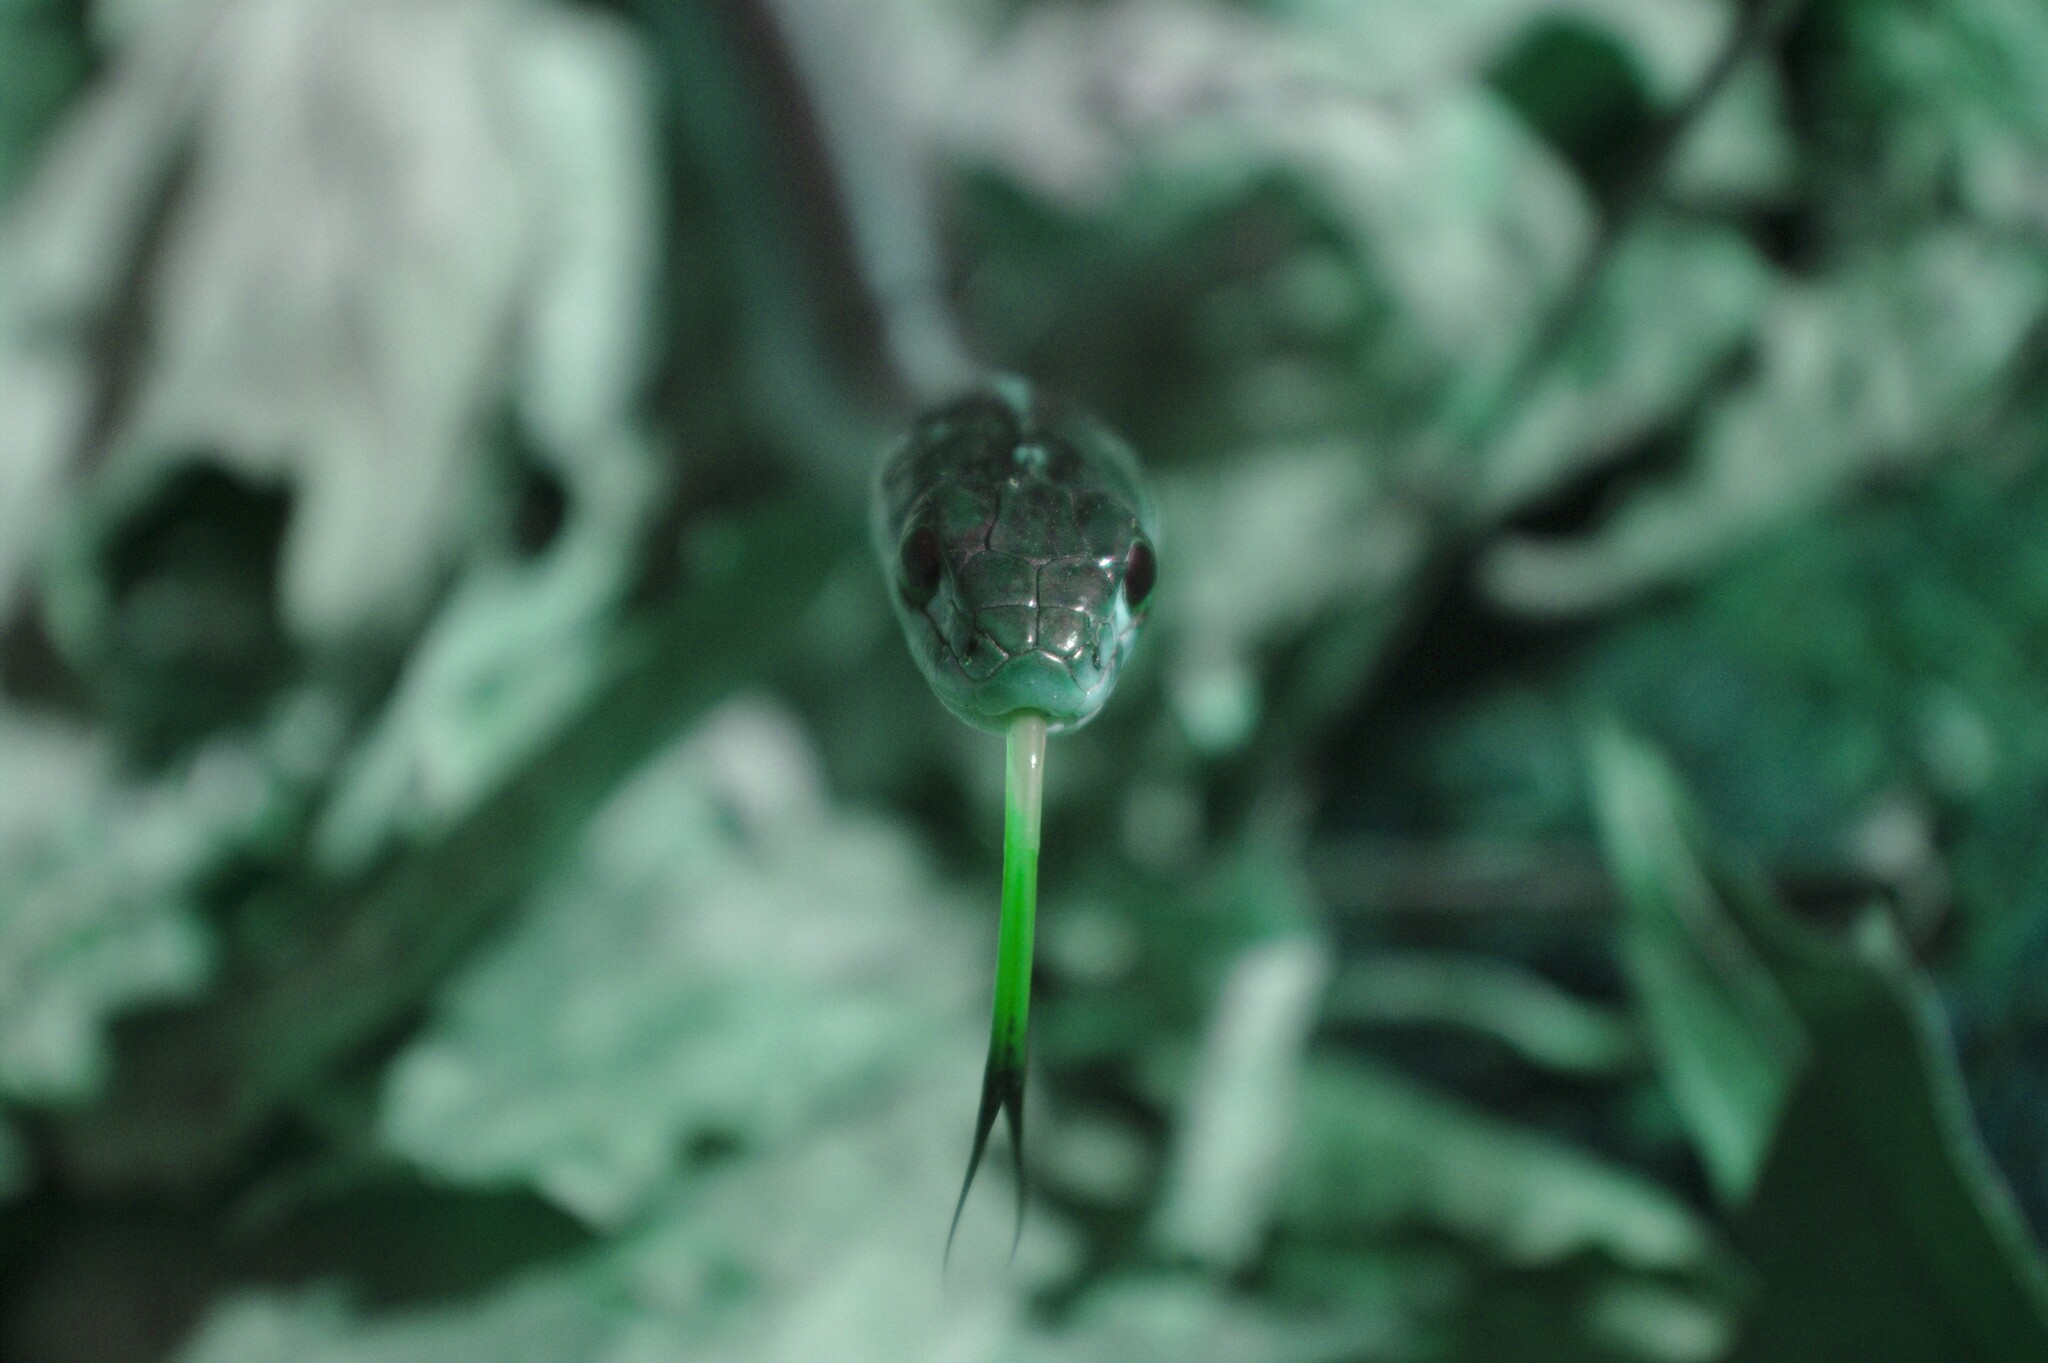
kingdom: Animalia
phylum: Chordata
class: Squamata
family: Colubridae
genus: Thamnophis
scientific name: Thamnophis sirtalis
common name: Common garter snake
